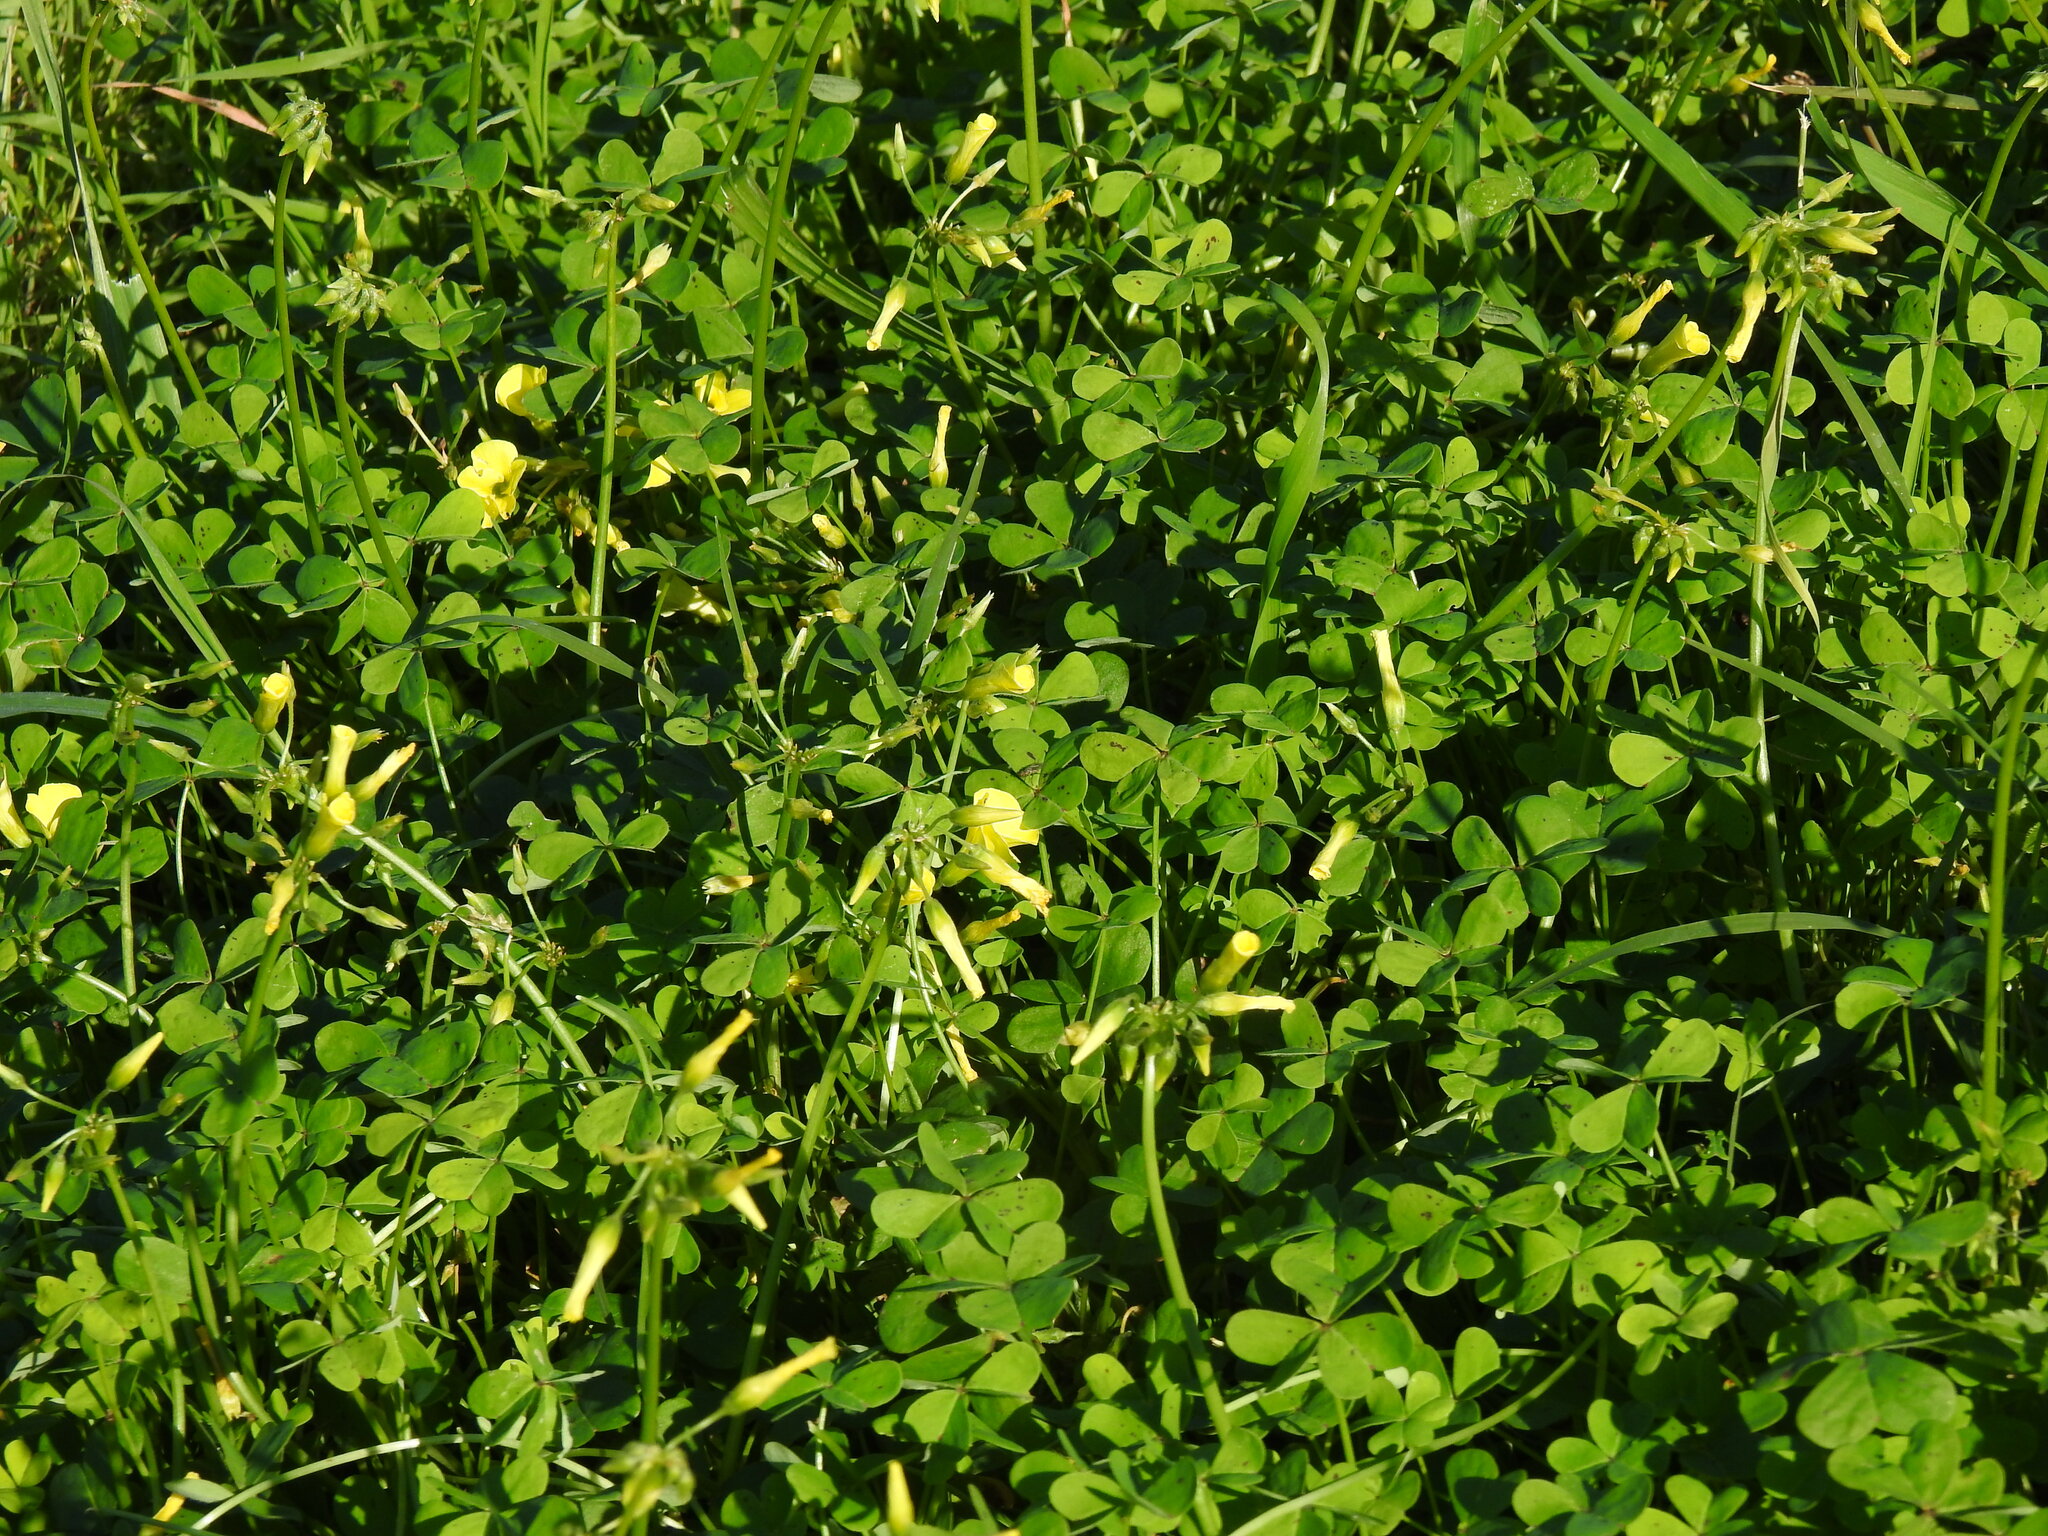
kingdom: Plantae
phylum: Tracheophyta
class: Magnoliopsida
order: Oxalidales
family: Oxalidaceae
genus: Oxalis
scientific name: Oxalis pes-caprae
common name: Bermuda-buttercup
